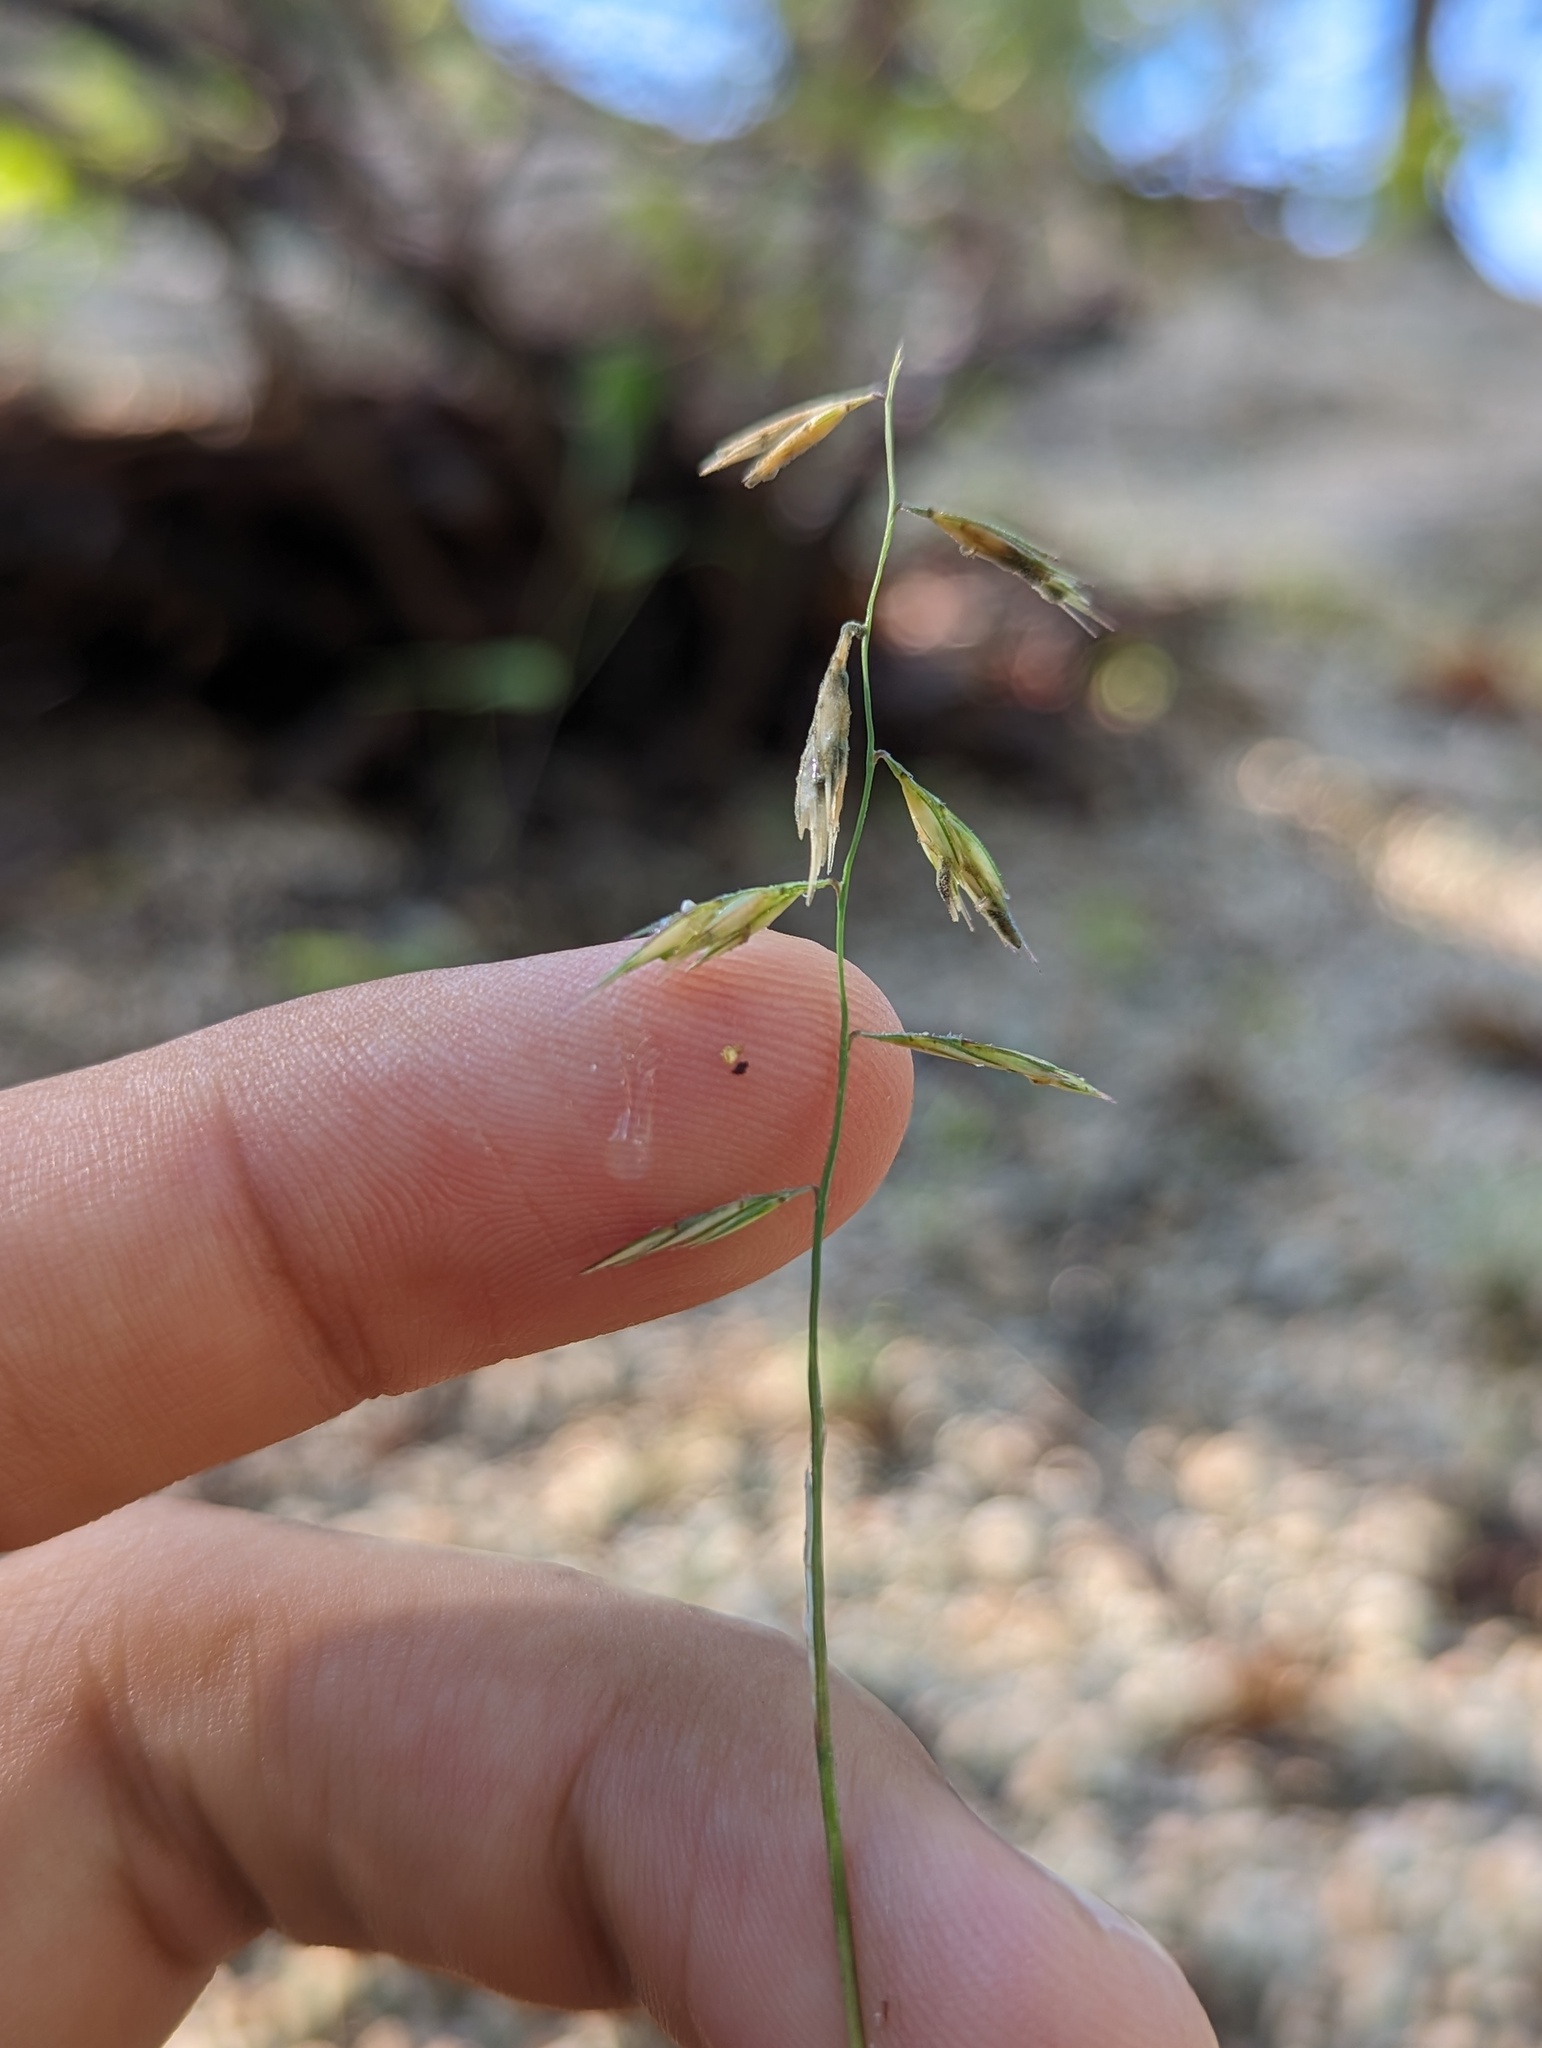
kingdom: Plantae
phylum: Tracheophyta
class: Liliopsida
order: Poales
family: Poaceae
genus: Bouteloua
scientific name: Bouteloua repens
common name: Slender grama
